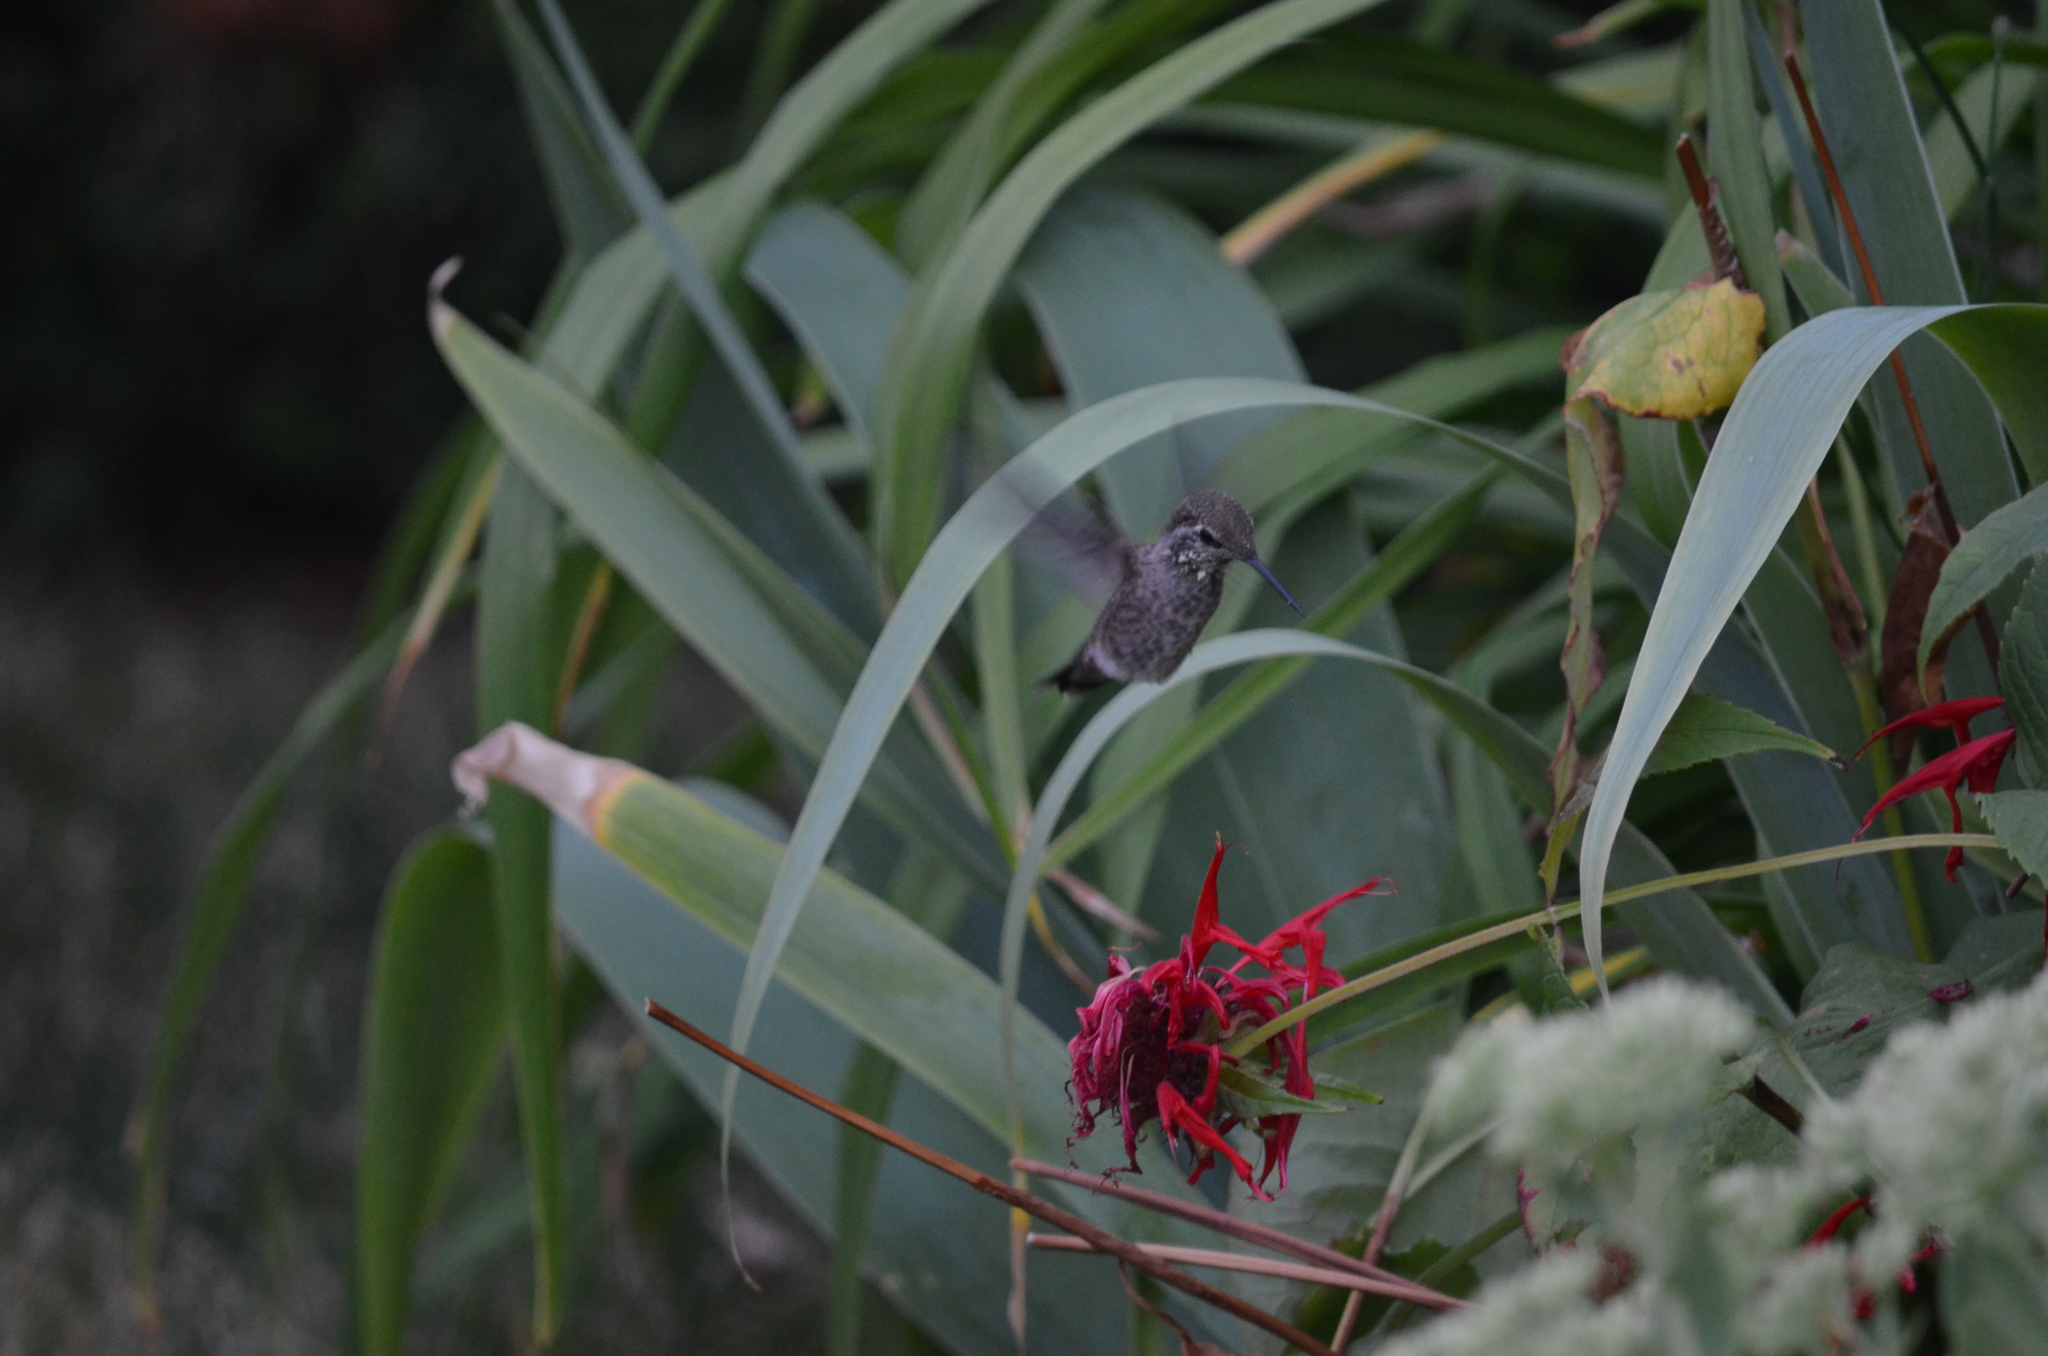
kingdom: Animalia
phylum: Chordata
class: Aves
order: Apodiformes
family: Trochilidae
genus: Calypte
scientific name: Calypte anna
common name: Anna's hummingbird
